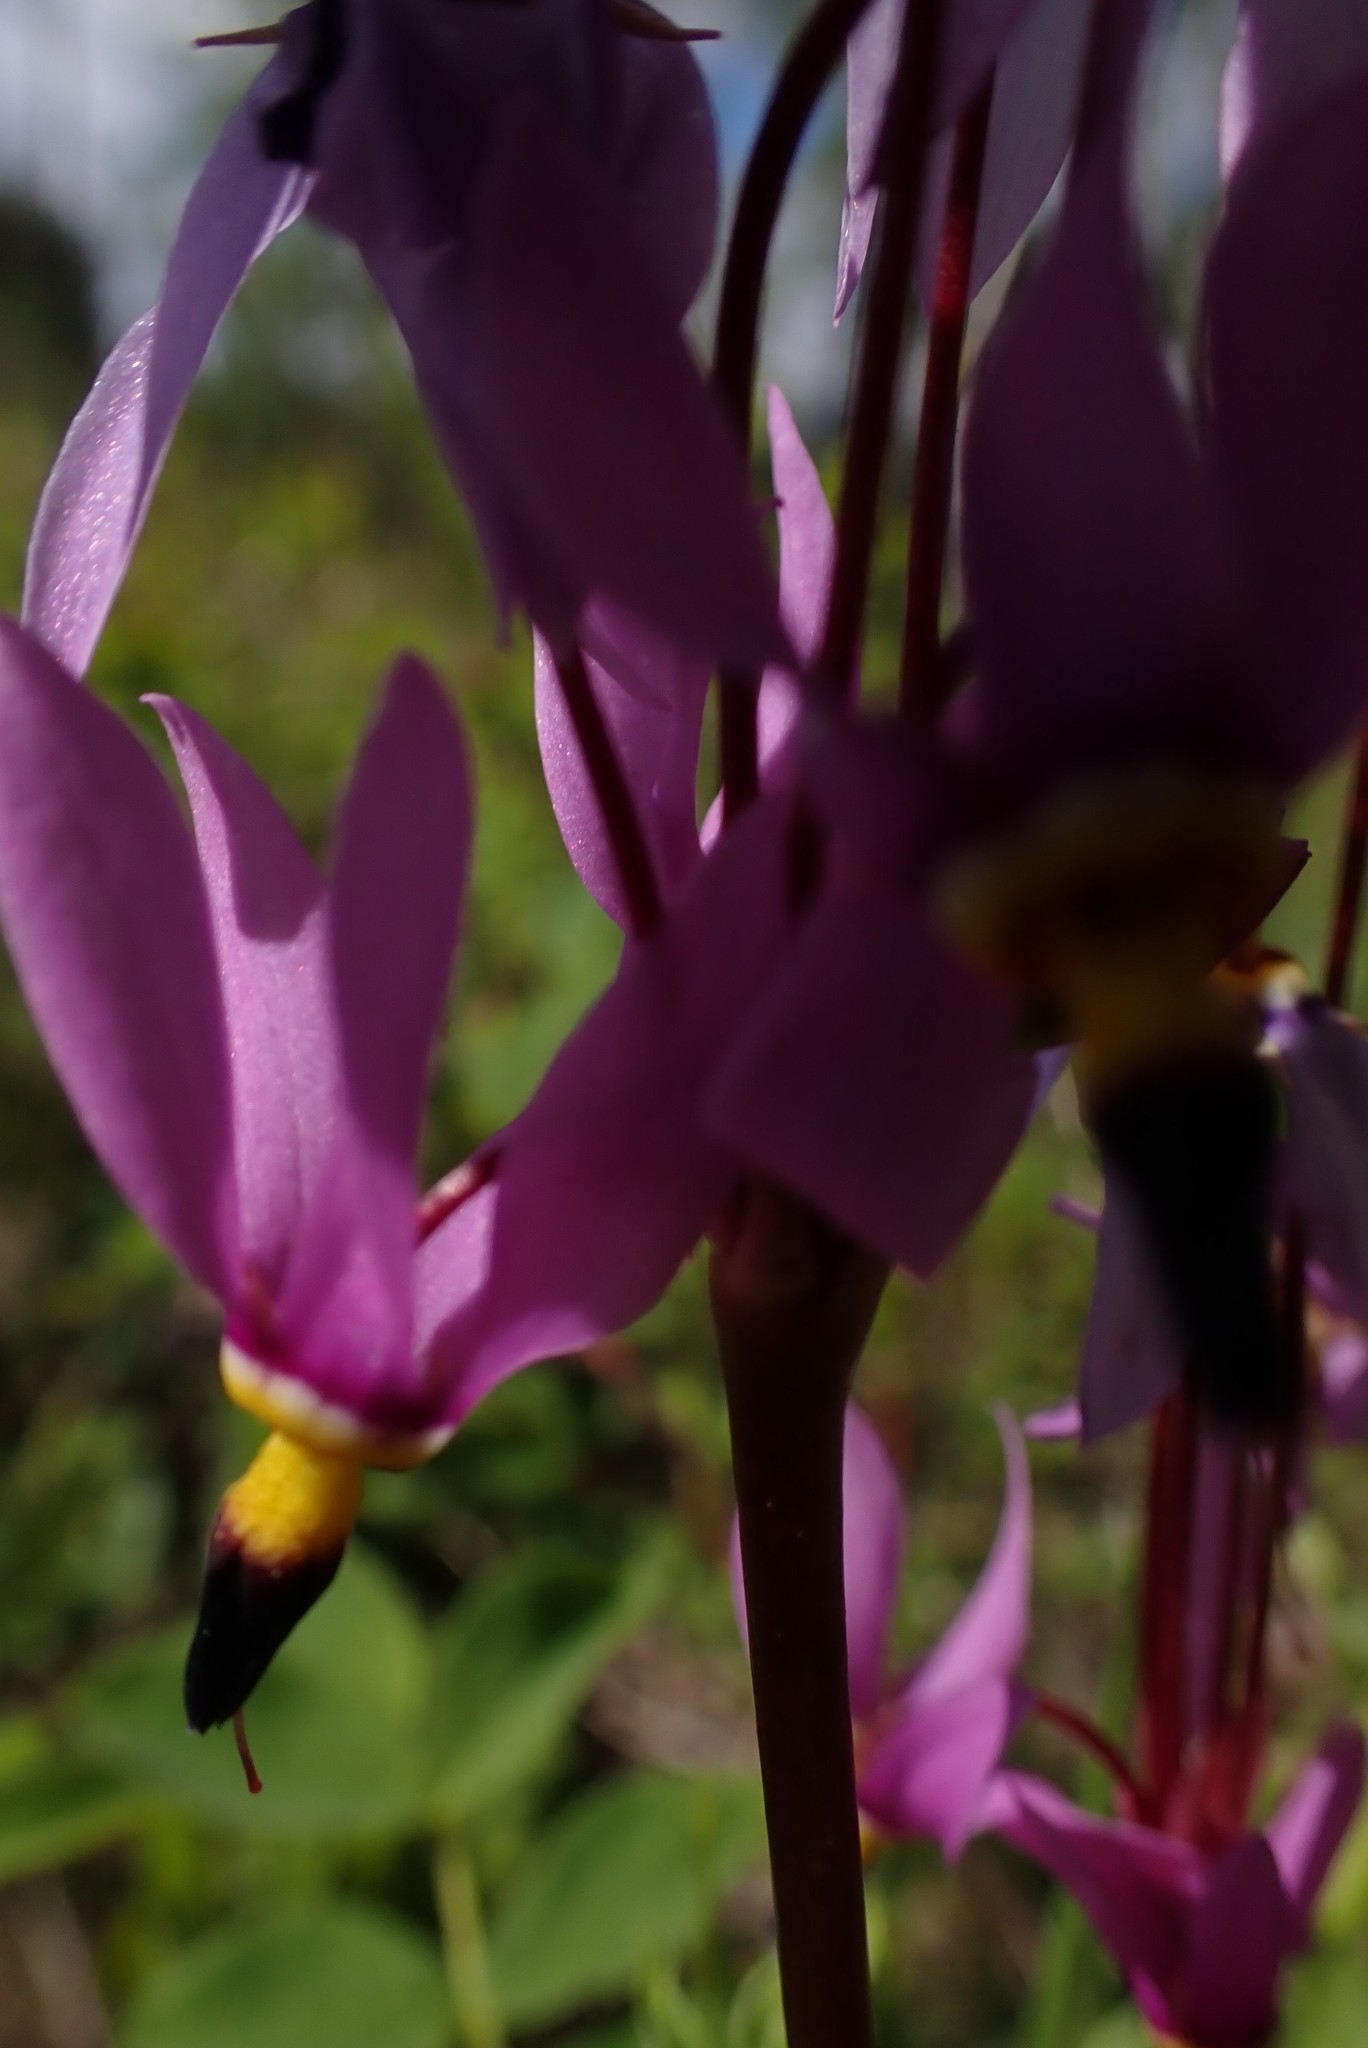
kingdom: Plantae
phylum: Tracheophyta
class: Magnoliopsida
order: Ericales
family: Primulaceae
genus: Dodecatheon
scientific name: Dodecatheon pulchellum
